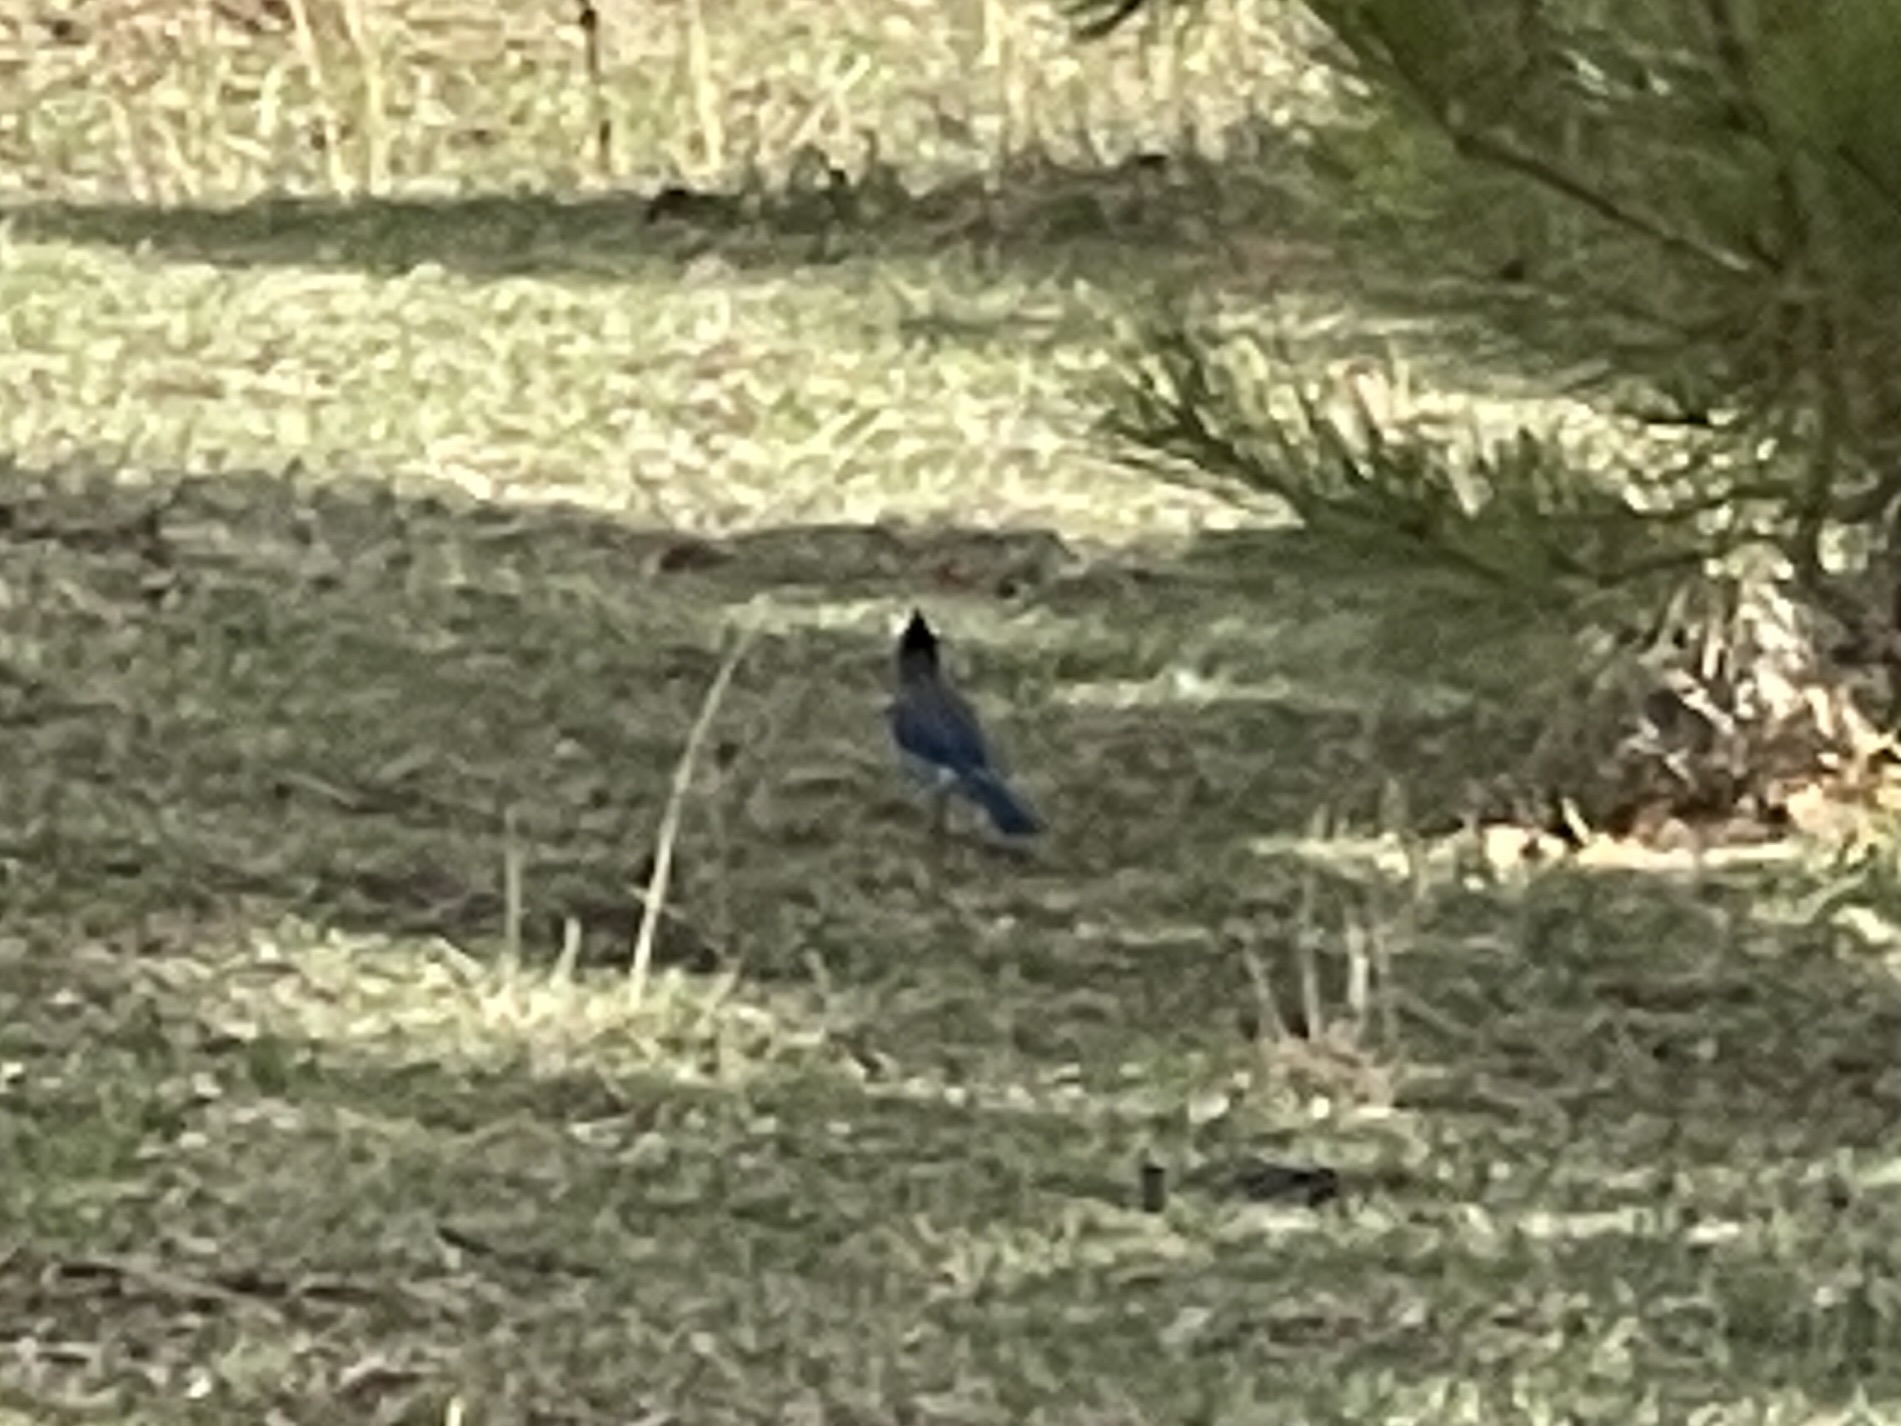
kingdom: Animalia
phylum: Chordata
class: Aves
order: Passeriformes
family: Corvidae
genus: Cyanocitta
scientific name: Cyanocitta stelleri
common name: Steller's jay
